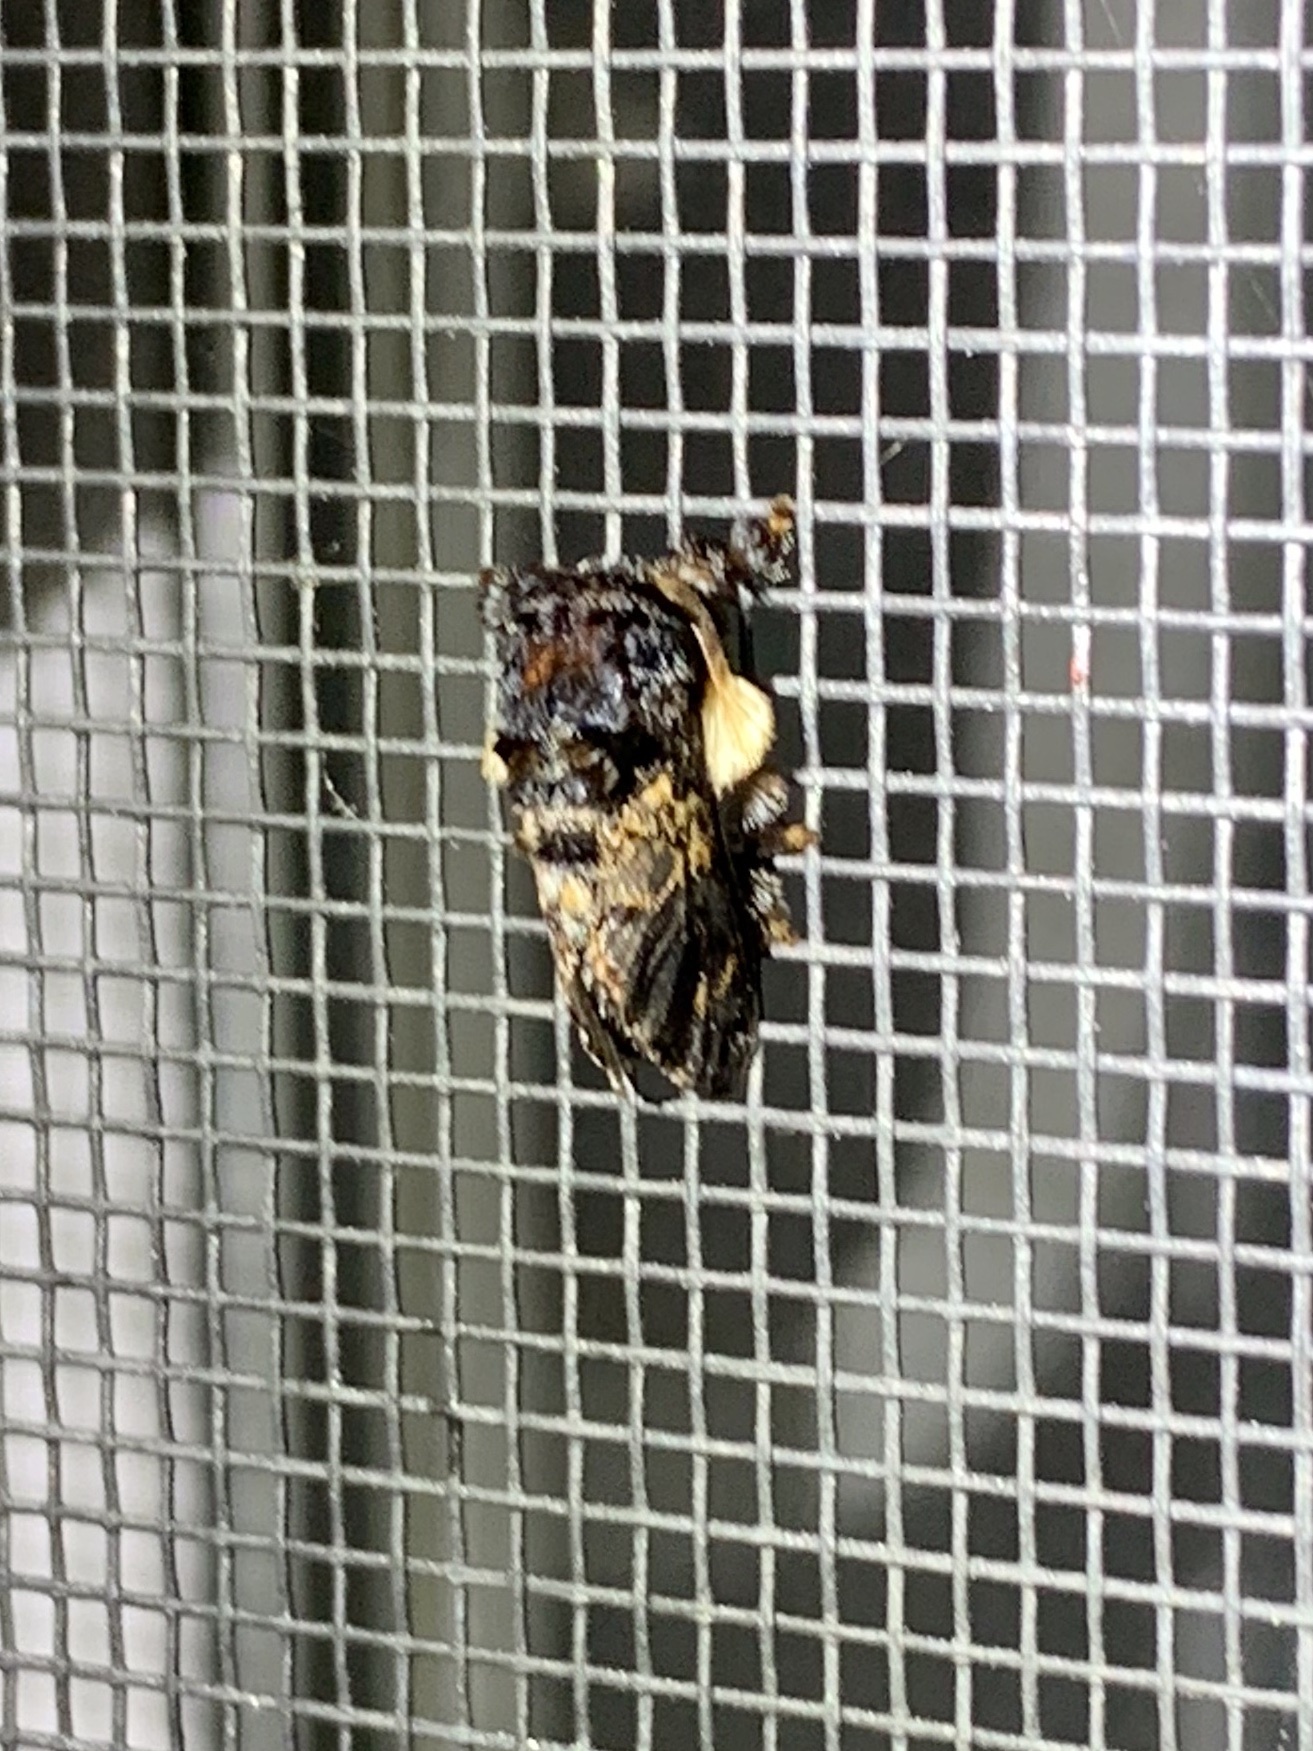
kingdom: Animalia
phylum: Arthropoda
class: Insecta
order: Lepidoptera
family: Limacodidae
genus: Phobetron
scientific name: Phobetron pithecium
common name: Hag moth
